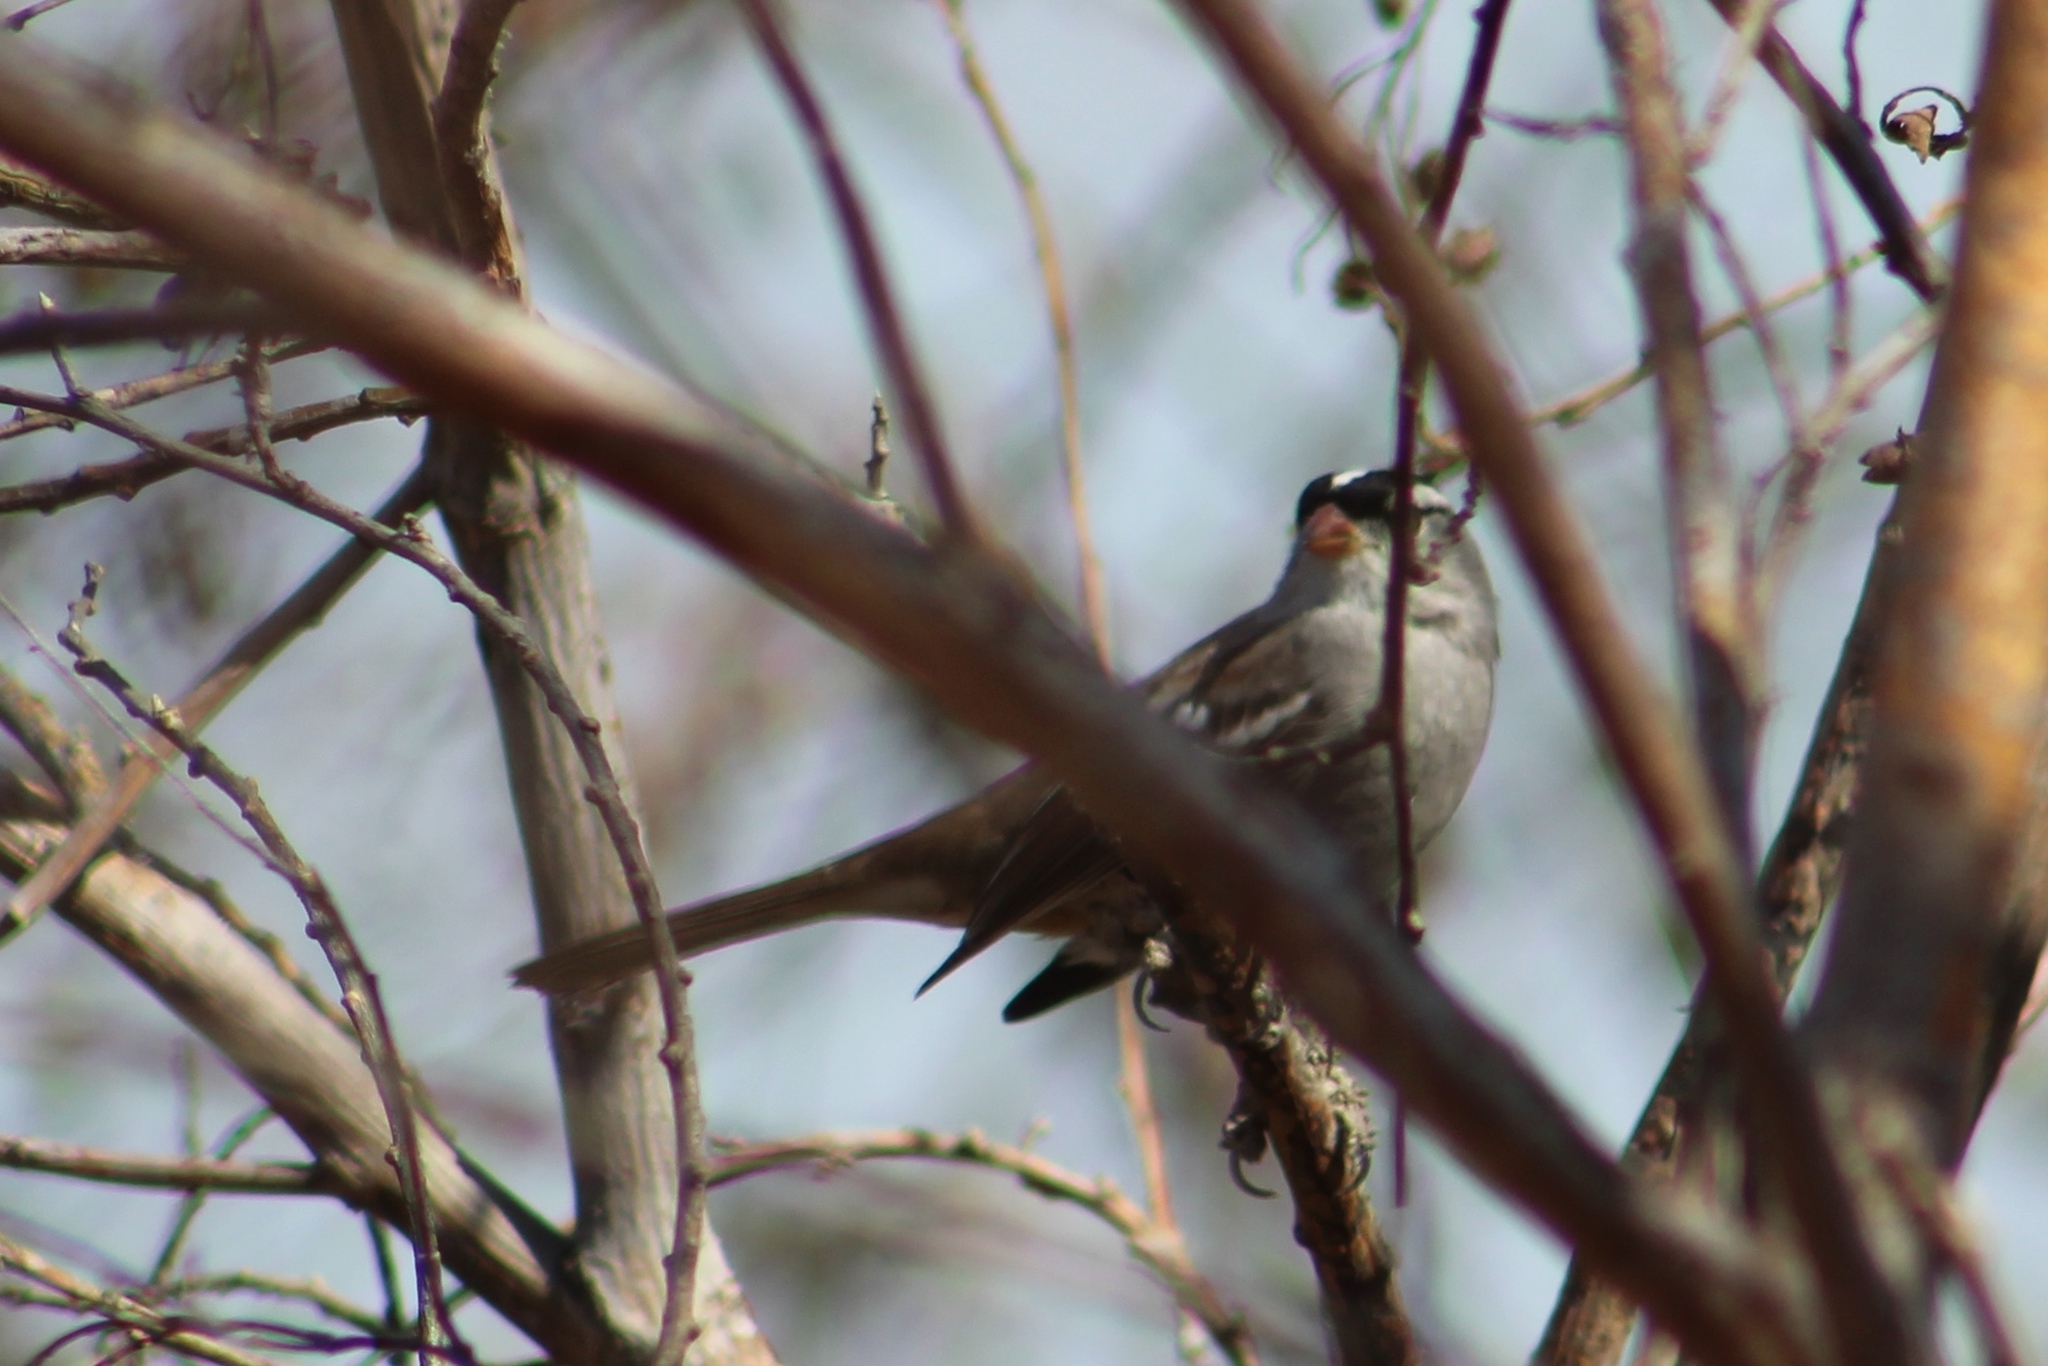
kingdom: Animalia
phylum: Chordata
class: Aves
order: Passeriformes
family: Passerellidae
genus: Zonotrichia
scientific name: Zonotrichia leucophrys
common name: White-crowned sparrow
